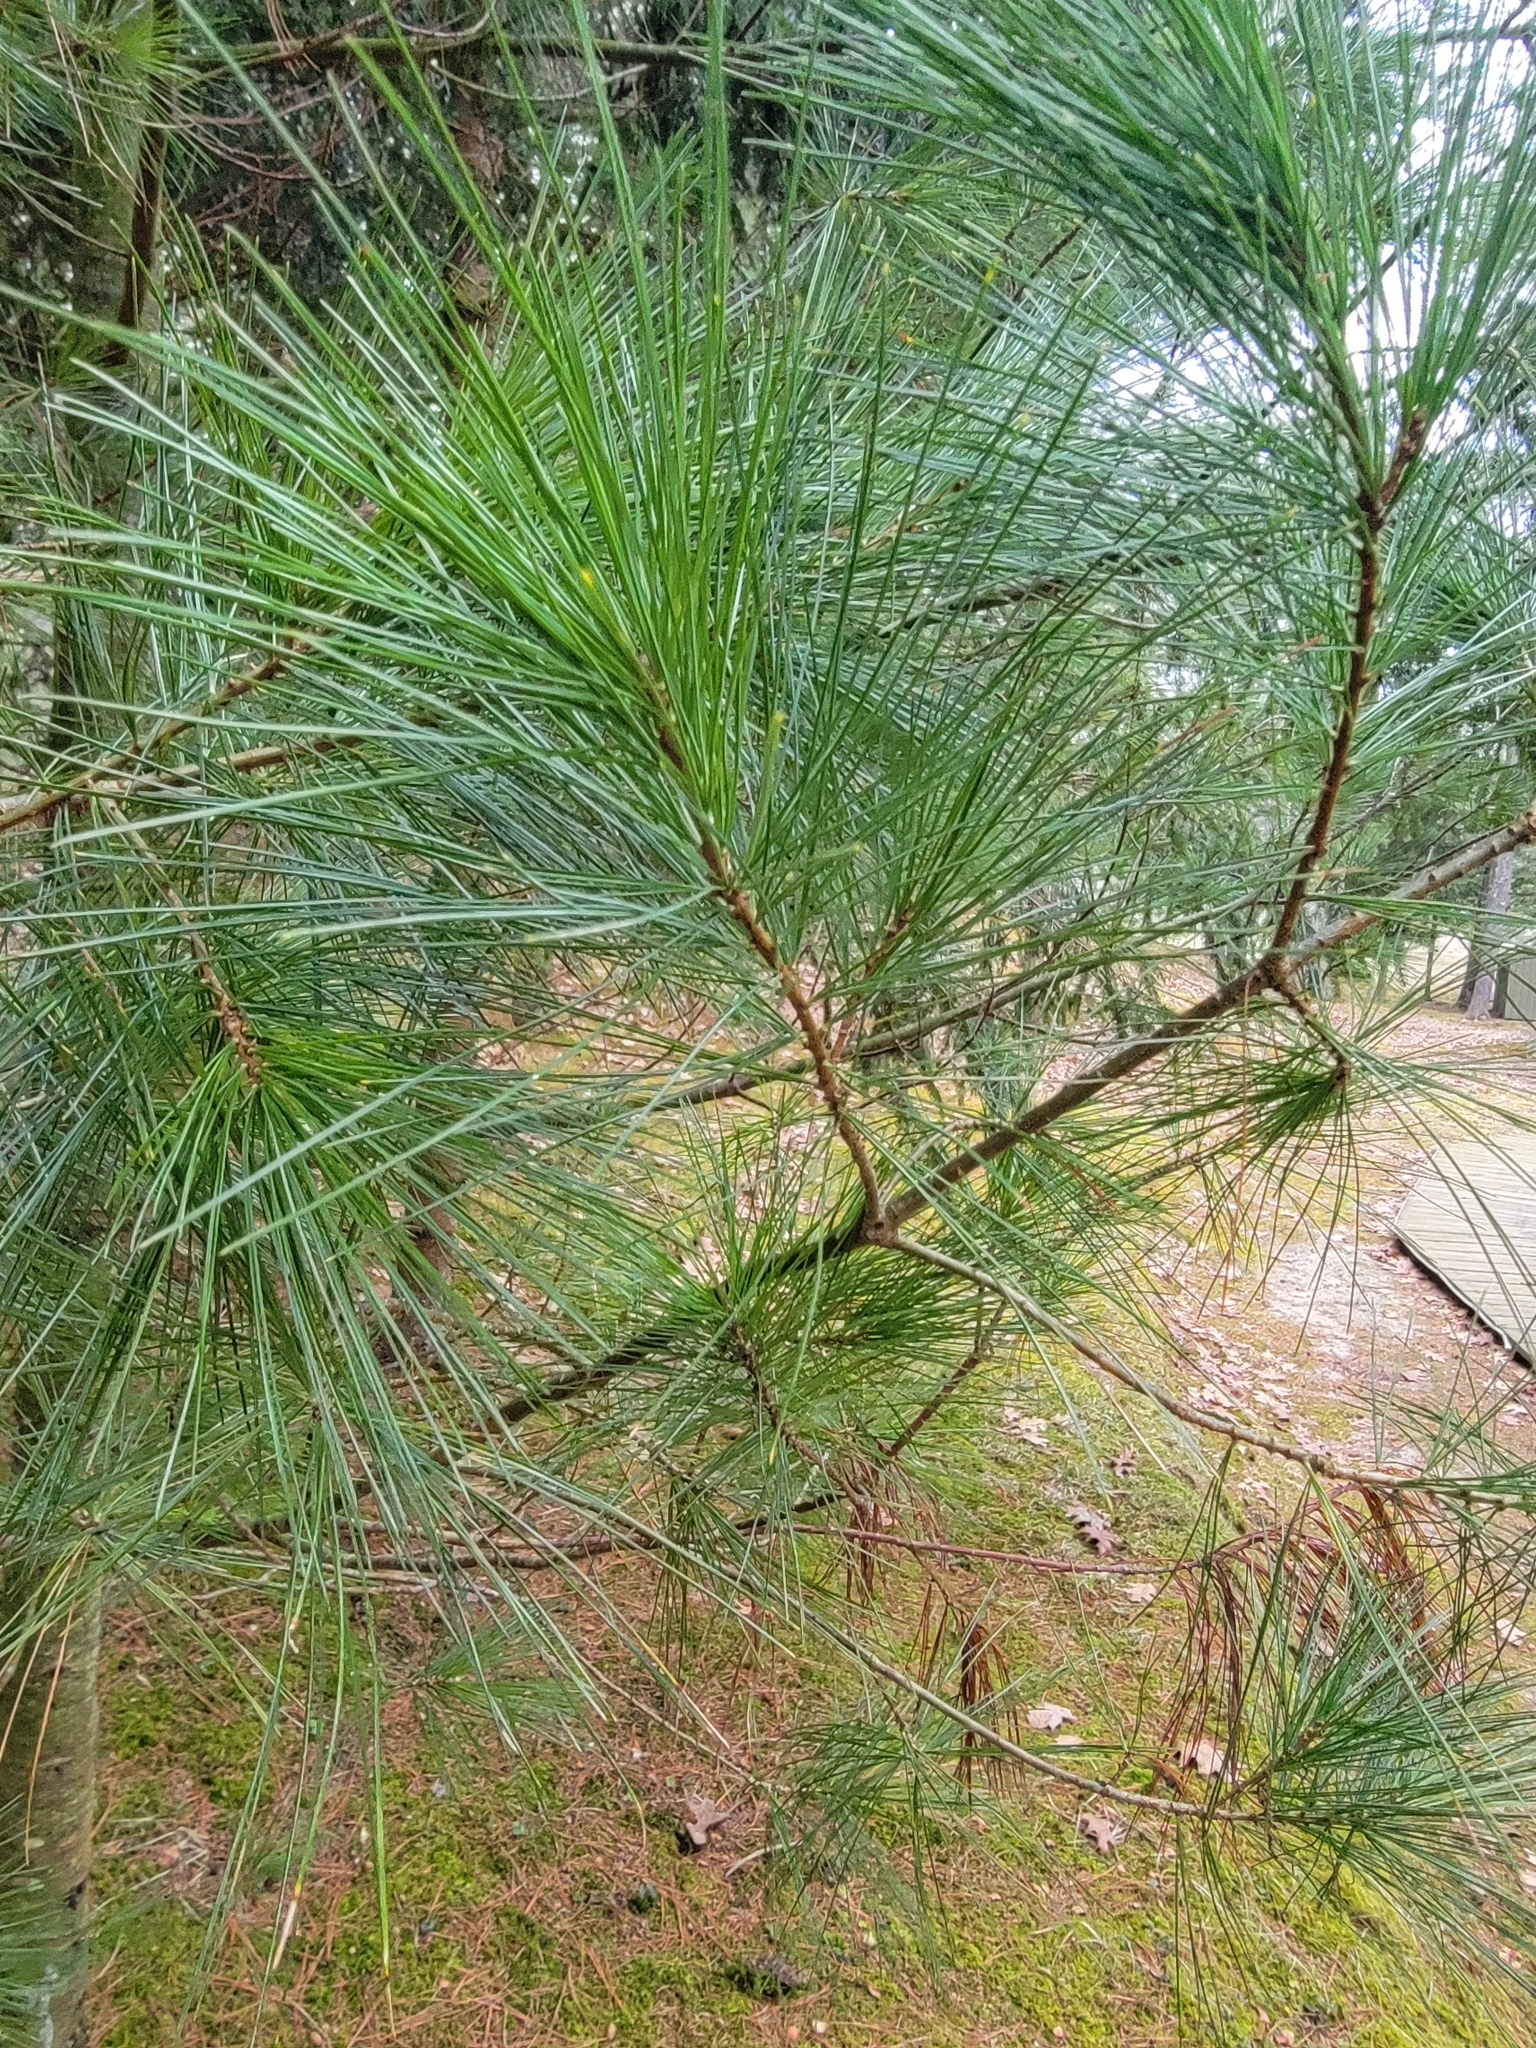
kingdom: Plantae
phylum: Tracheophyta
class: Pinopsida
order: Pinales
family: Pinaceae
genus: Pinus
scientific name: Pinus strobus
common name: Weymouth pine
